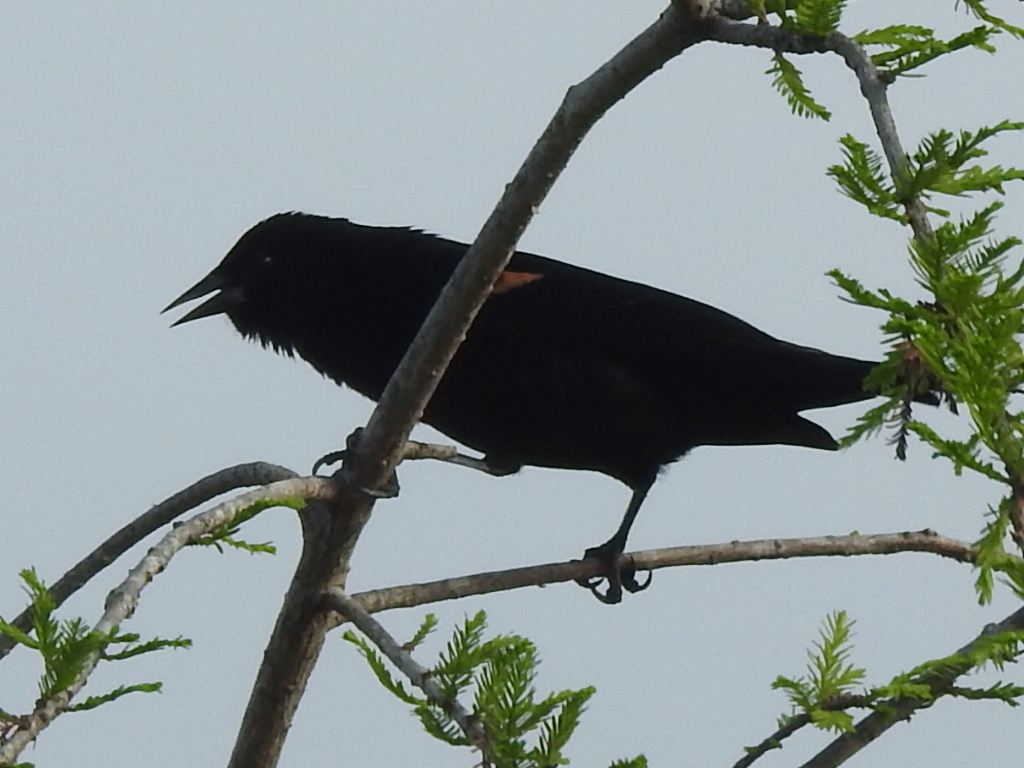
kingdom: Animalia
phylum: Chordata
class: Aves
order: Passeriformes
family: Icteridae
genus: Agelaius
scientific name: Agelaius phoeniceus
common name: Red-winged blackbird
